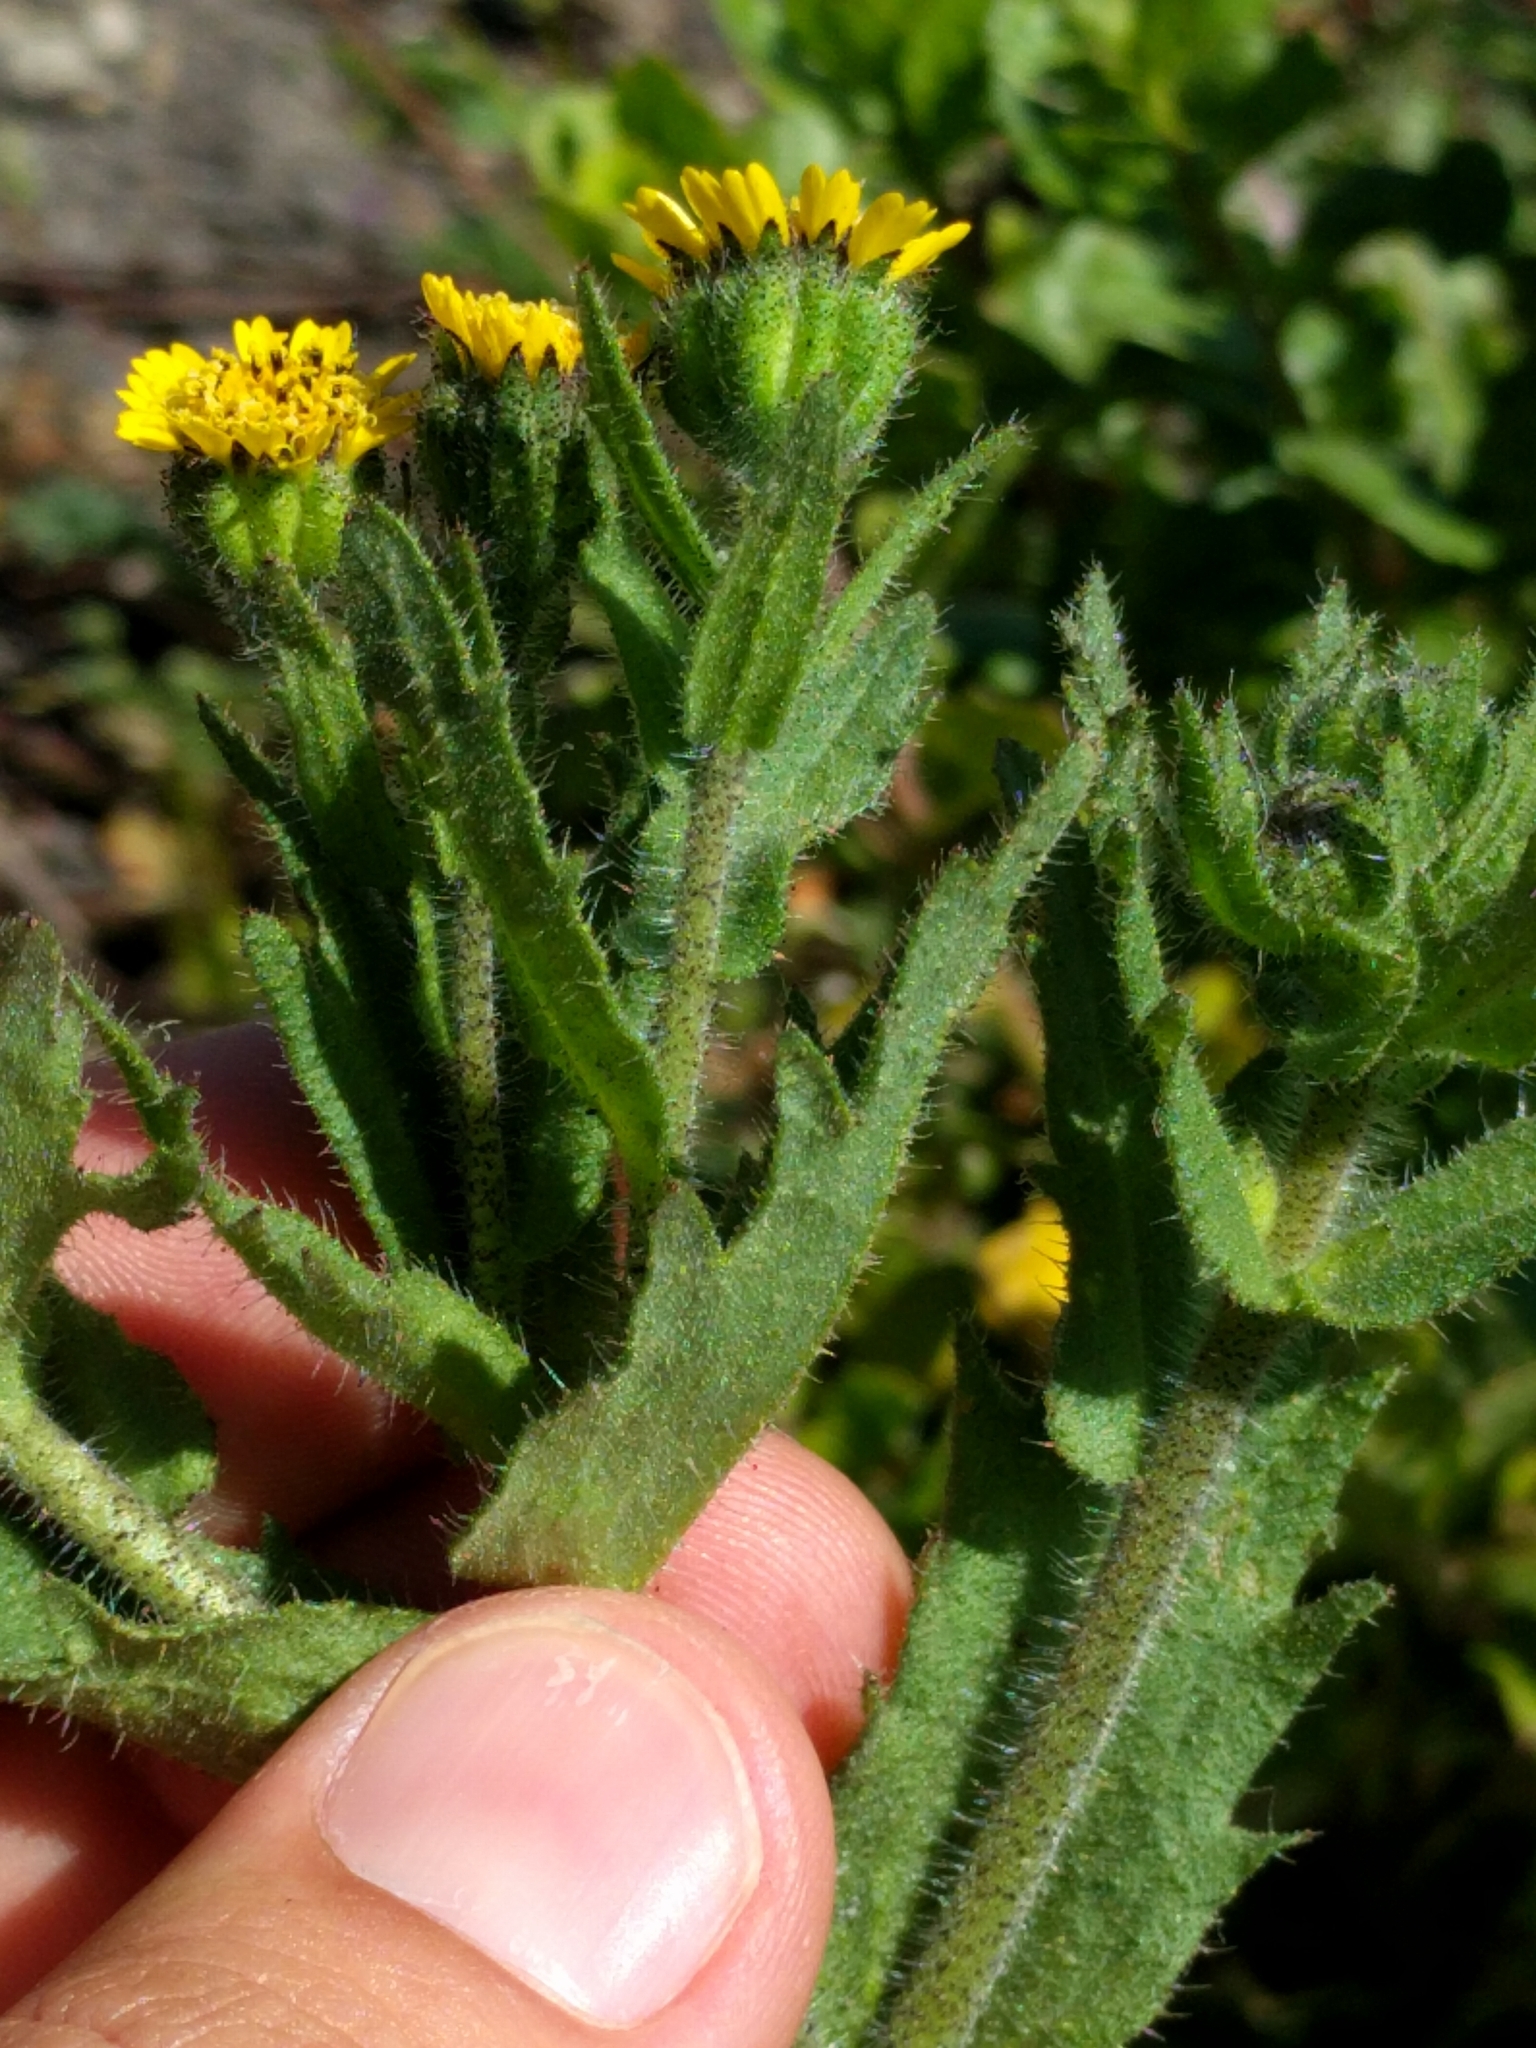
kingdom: Plantae
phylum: Tracheophyta
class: Magnoliopsida
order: Asterales
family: Asteraceae
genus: Layia
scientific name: Layia hieracioides
